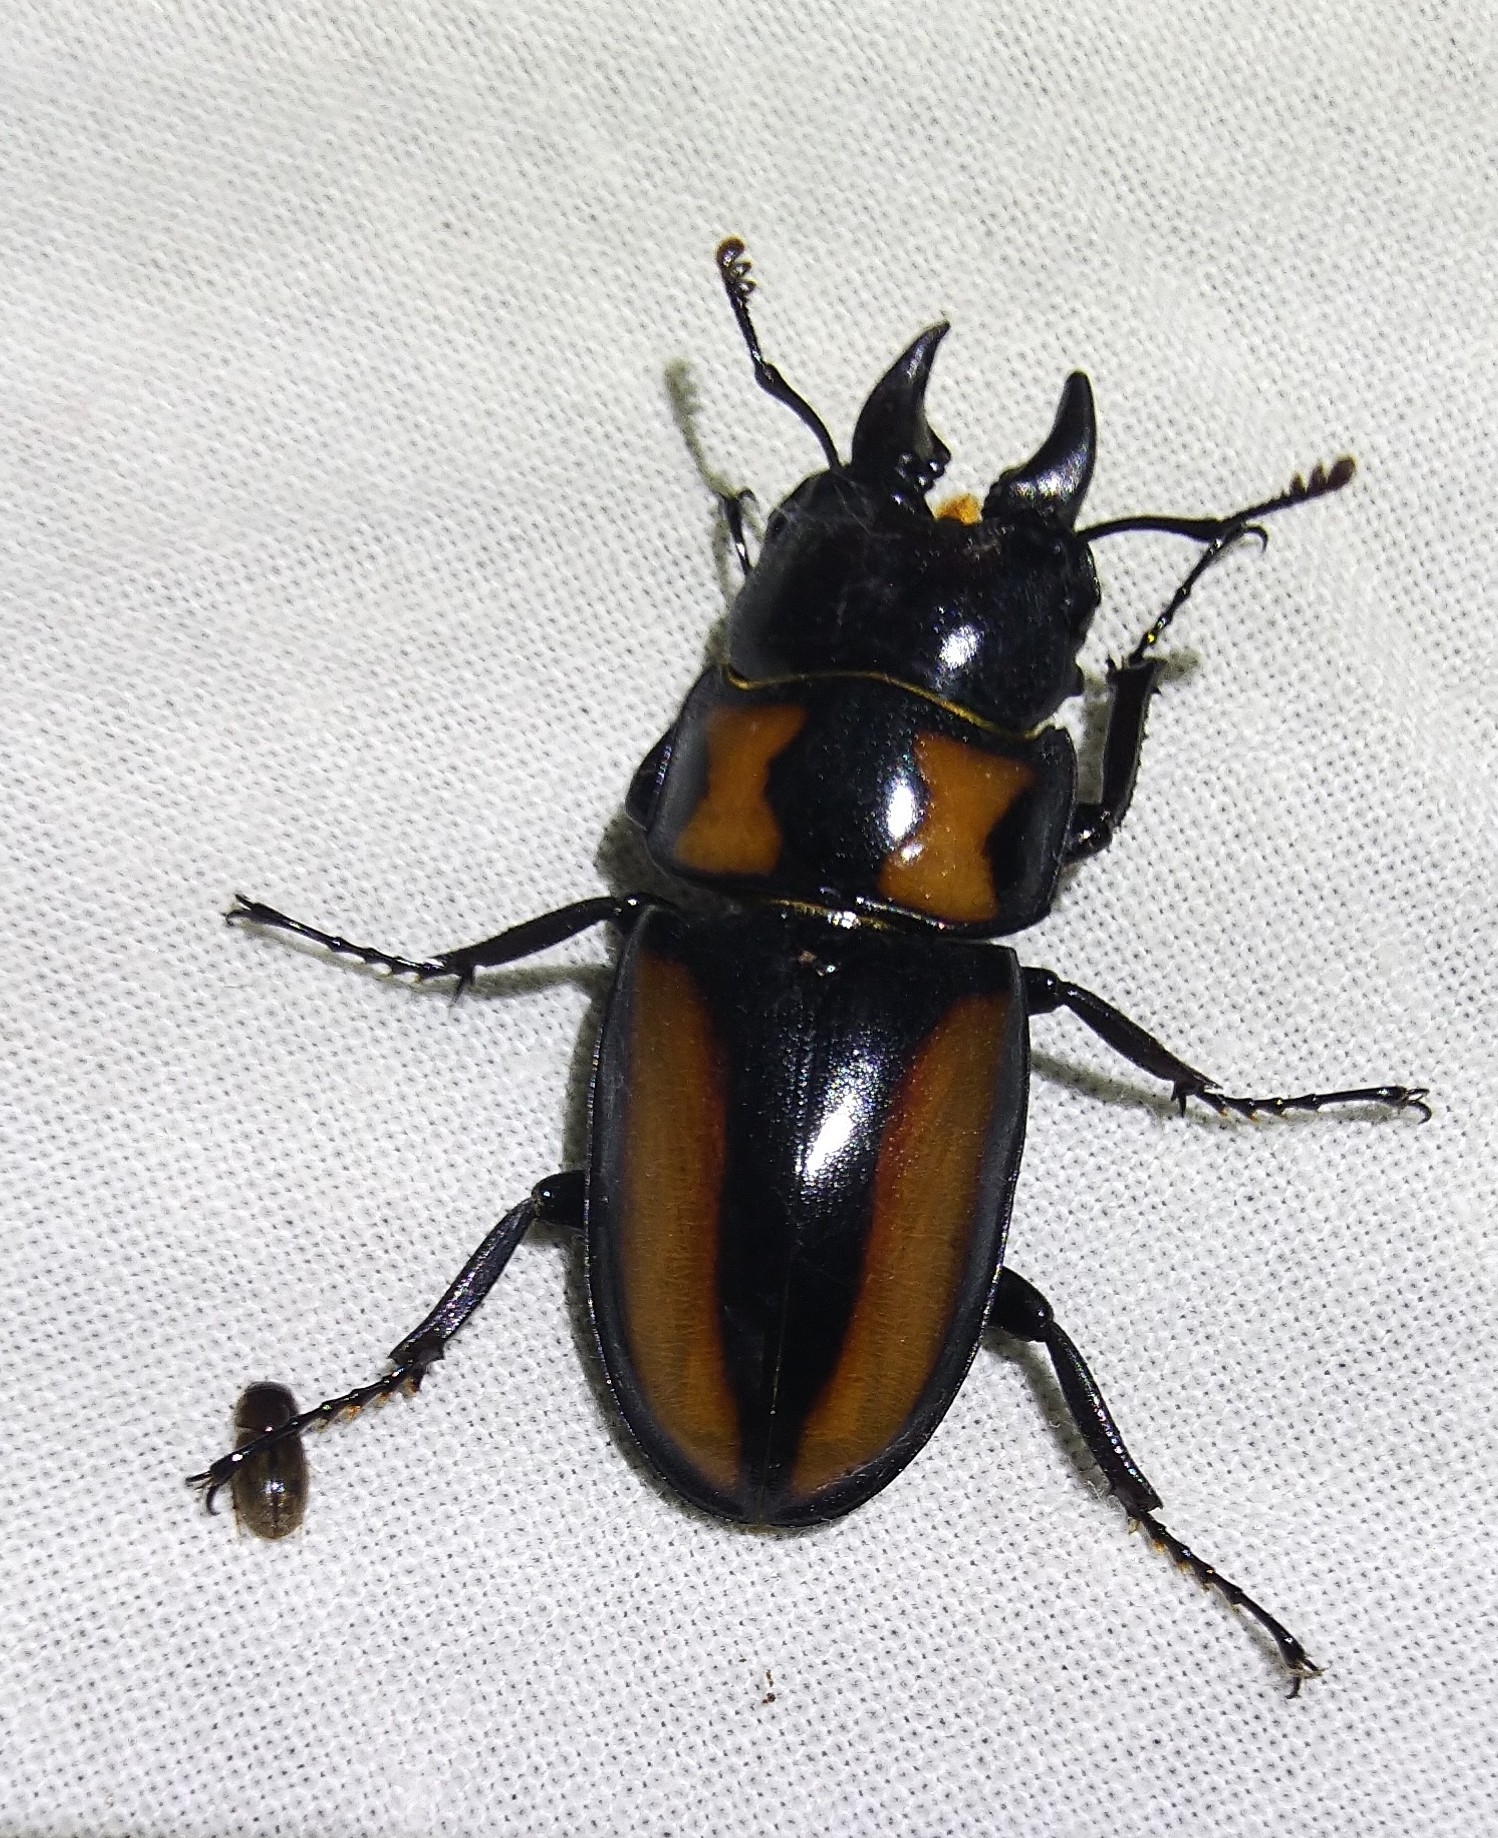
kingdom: Animalia
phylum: Arthropoda
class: Insecta
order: Coleoptera
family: Lucanidae
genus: Prosopocoilus
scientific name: Prosopocoilus biplagiatus
